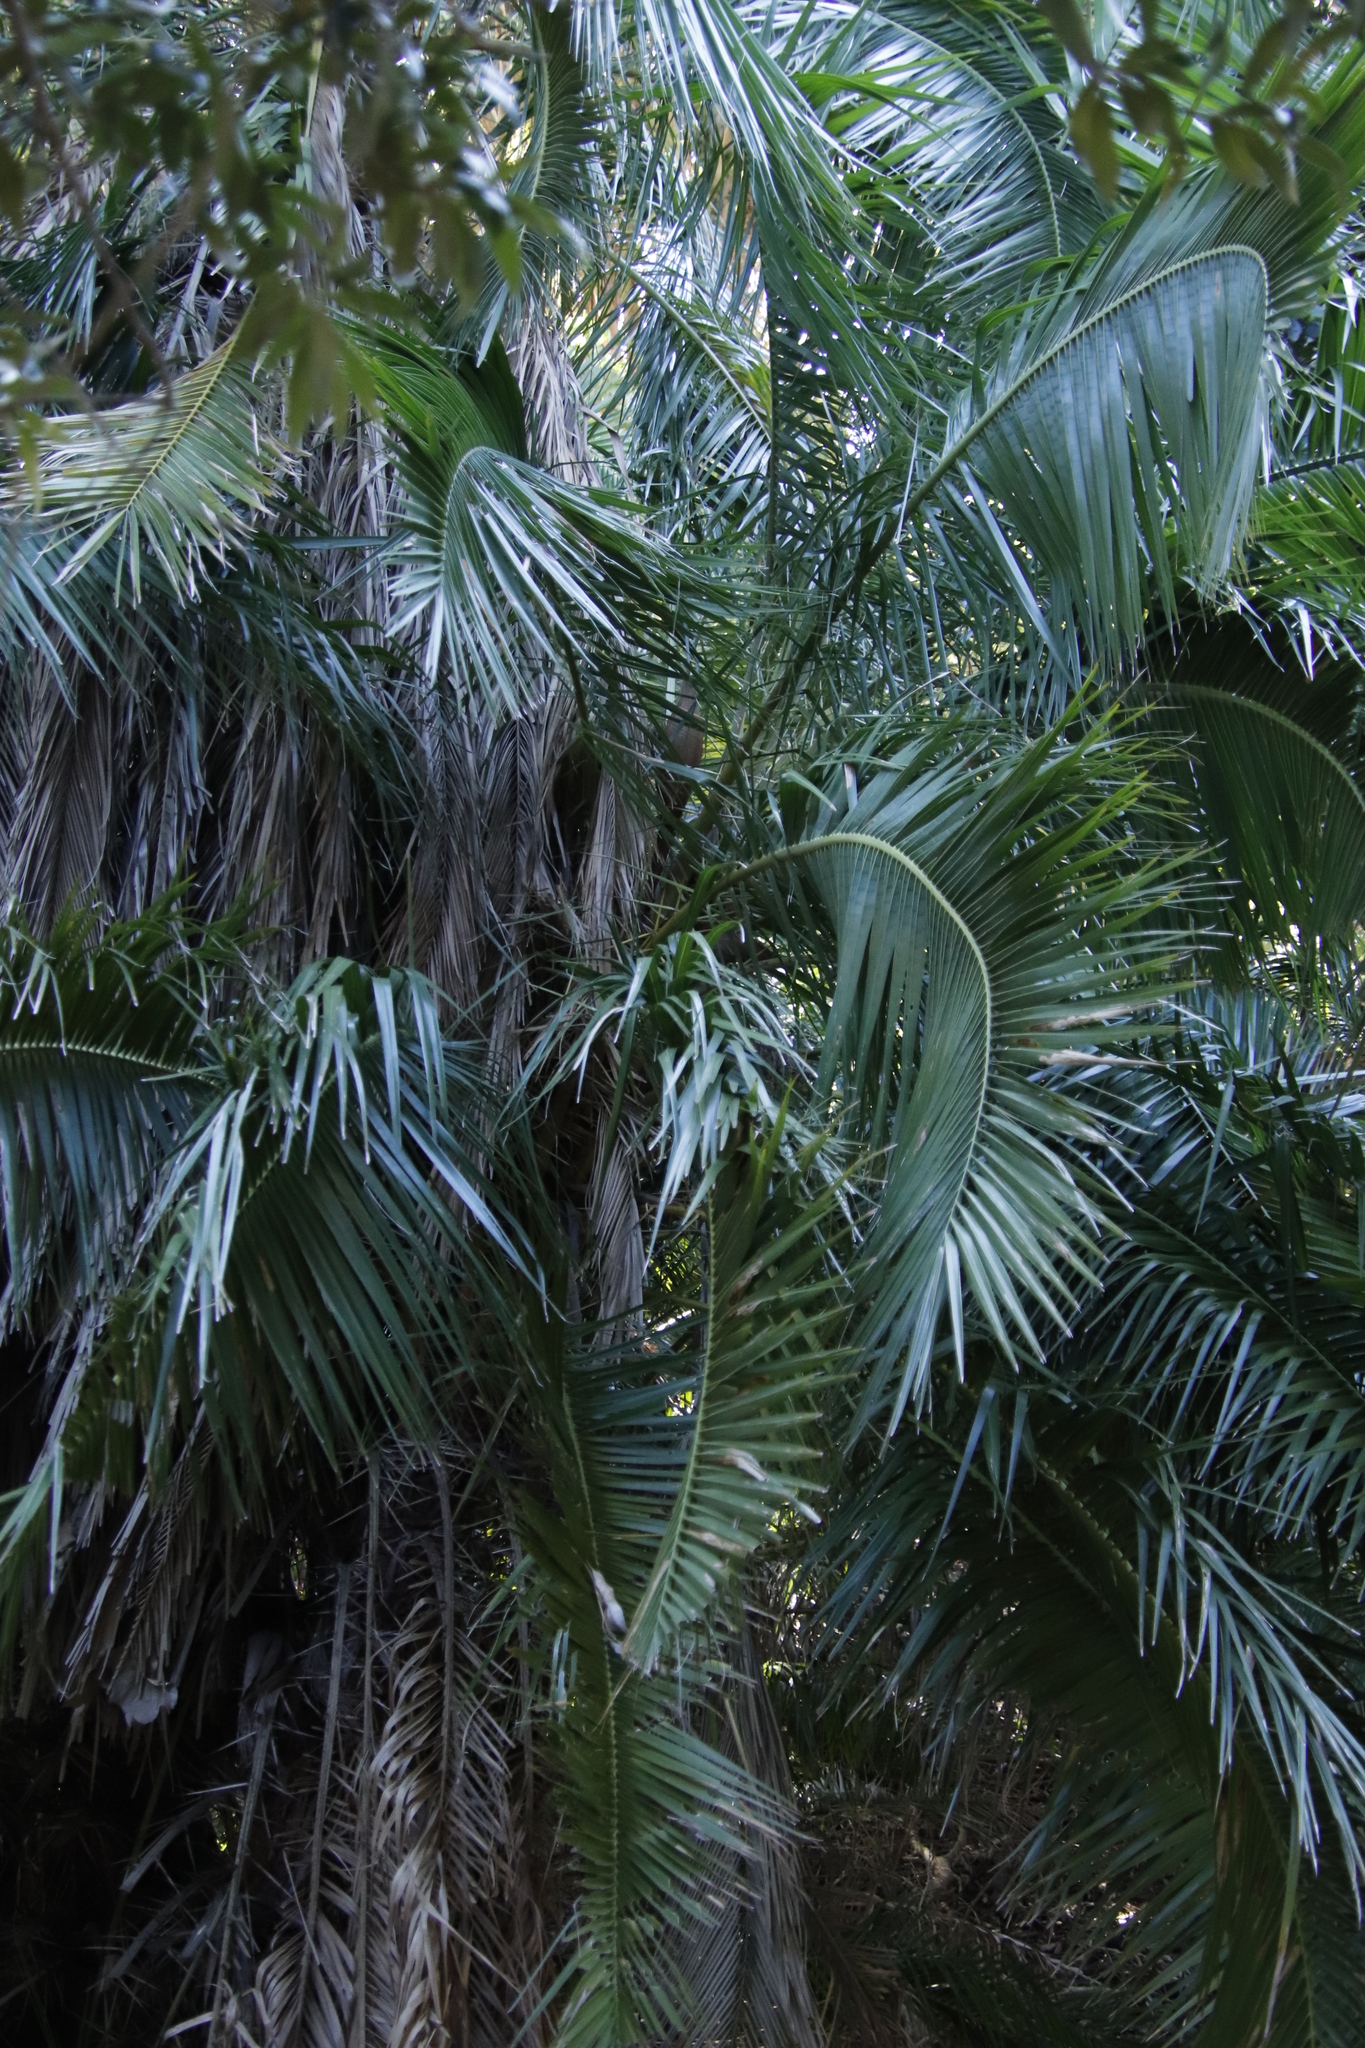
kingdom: Plantae
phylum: Tracheophyta
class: Liliopsida
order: Arecales
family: Arecaceae
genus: Phoenix
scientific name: Phoenix reclinata
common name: Senegal date palm
